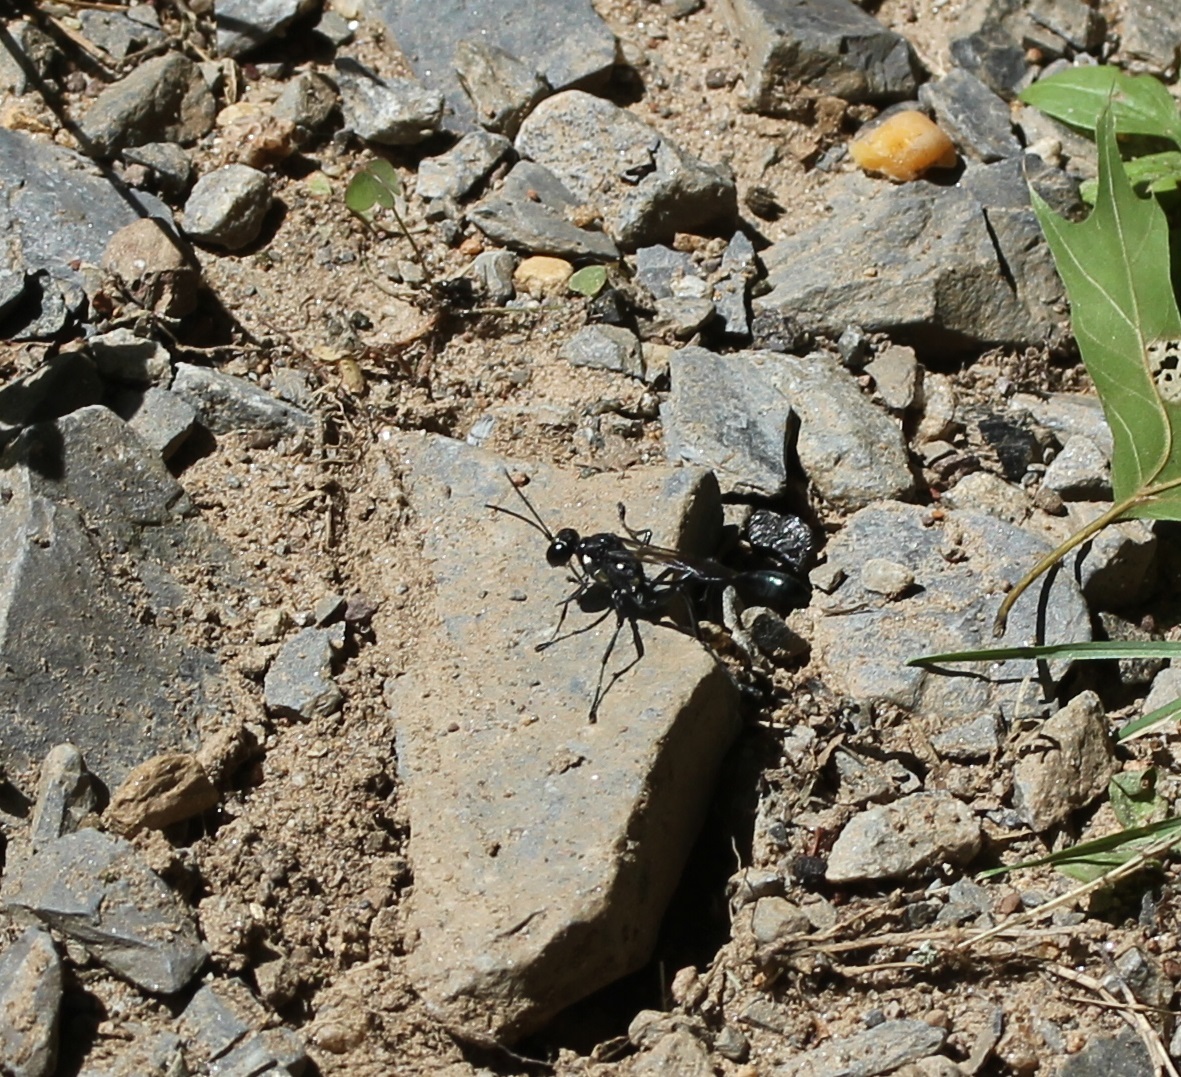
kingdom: Animalia
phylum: Arthropoda
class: Insecta
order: Hymenoptera
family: Sphecidae
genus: Eremnophila
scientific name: Eremnophila aureonotata
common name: Gold-marked thread-waisted wasp
